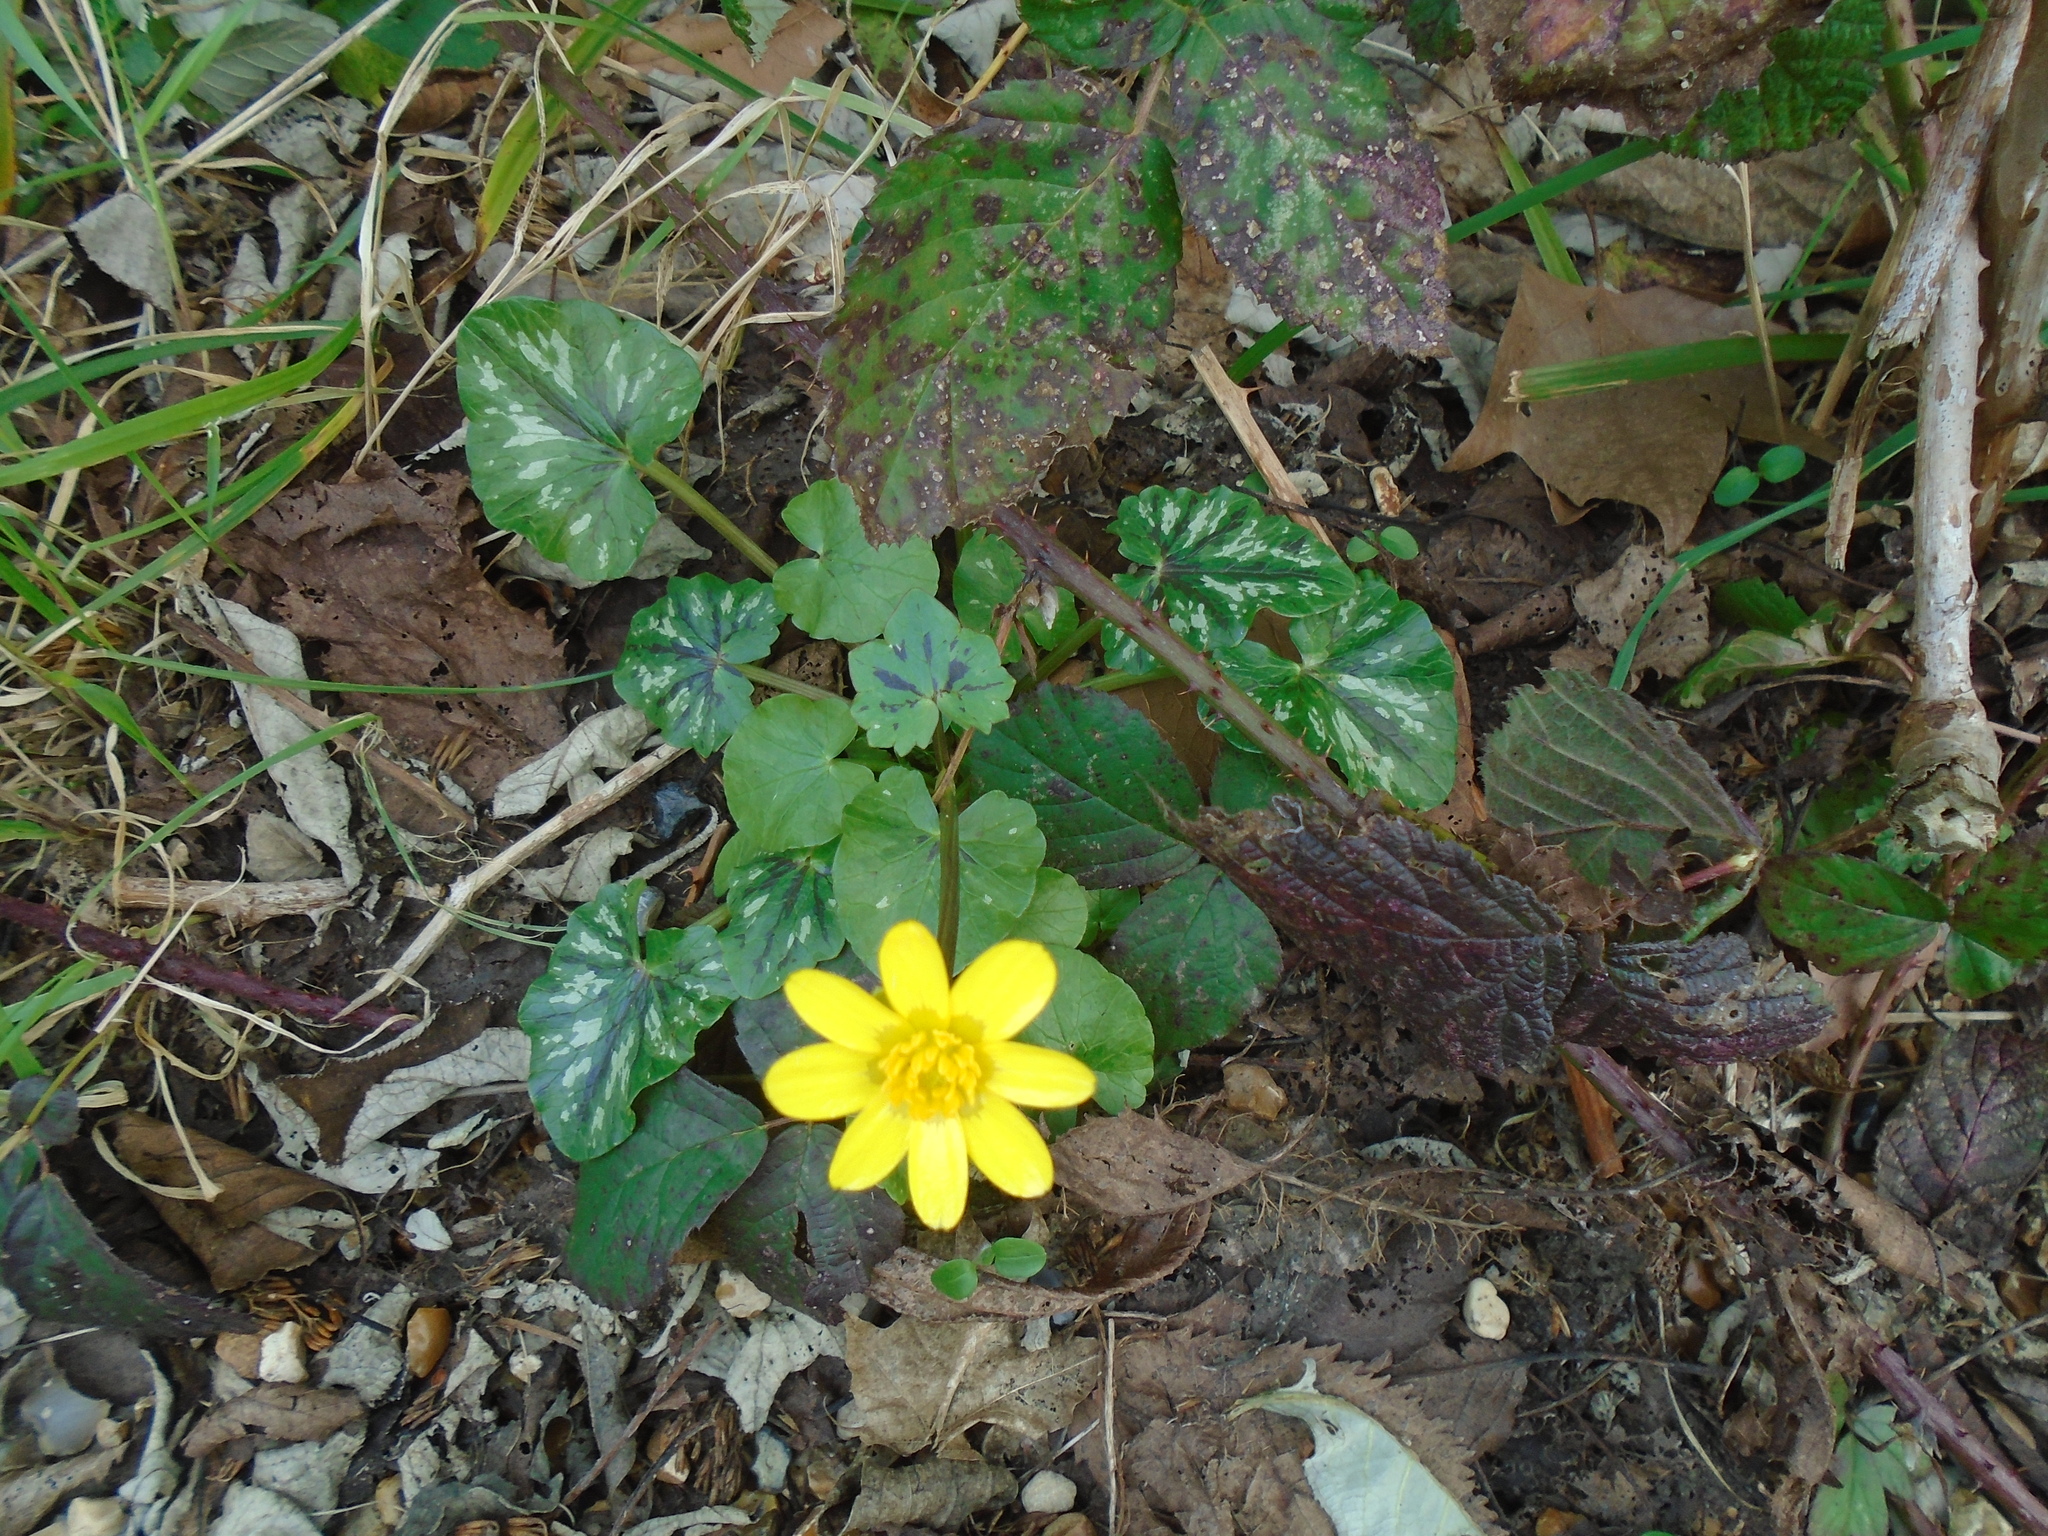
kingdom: Plantae
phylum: Tracheophyta
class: Magnoliopsida
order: Ranunculales
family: Ranunculaceae
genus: Ficaria
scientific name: Ficaria verna
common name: Lesser celandine
